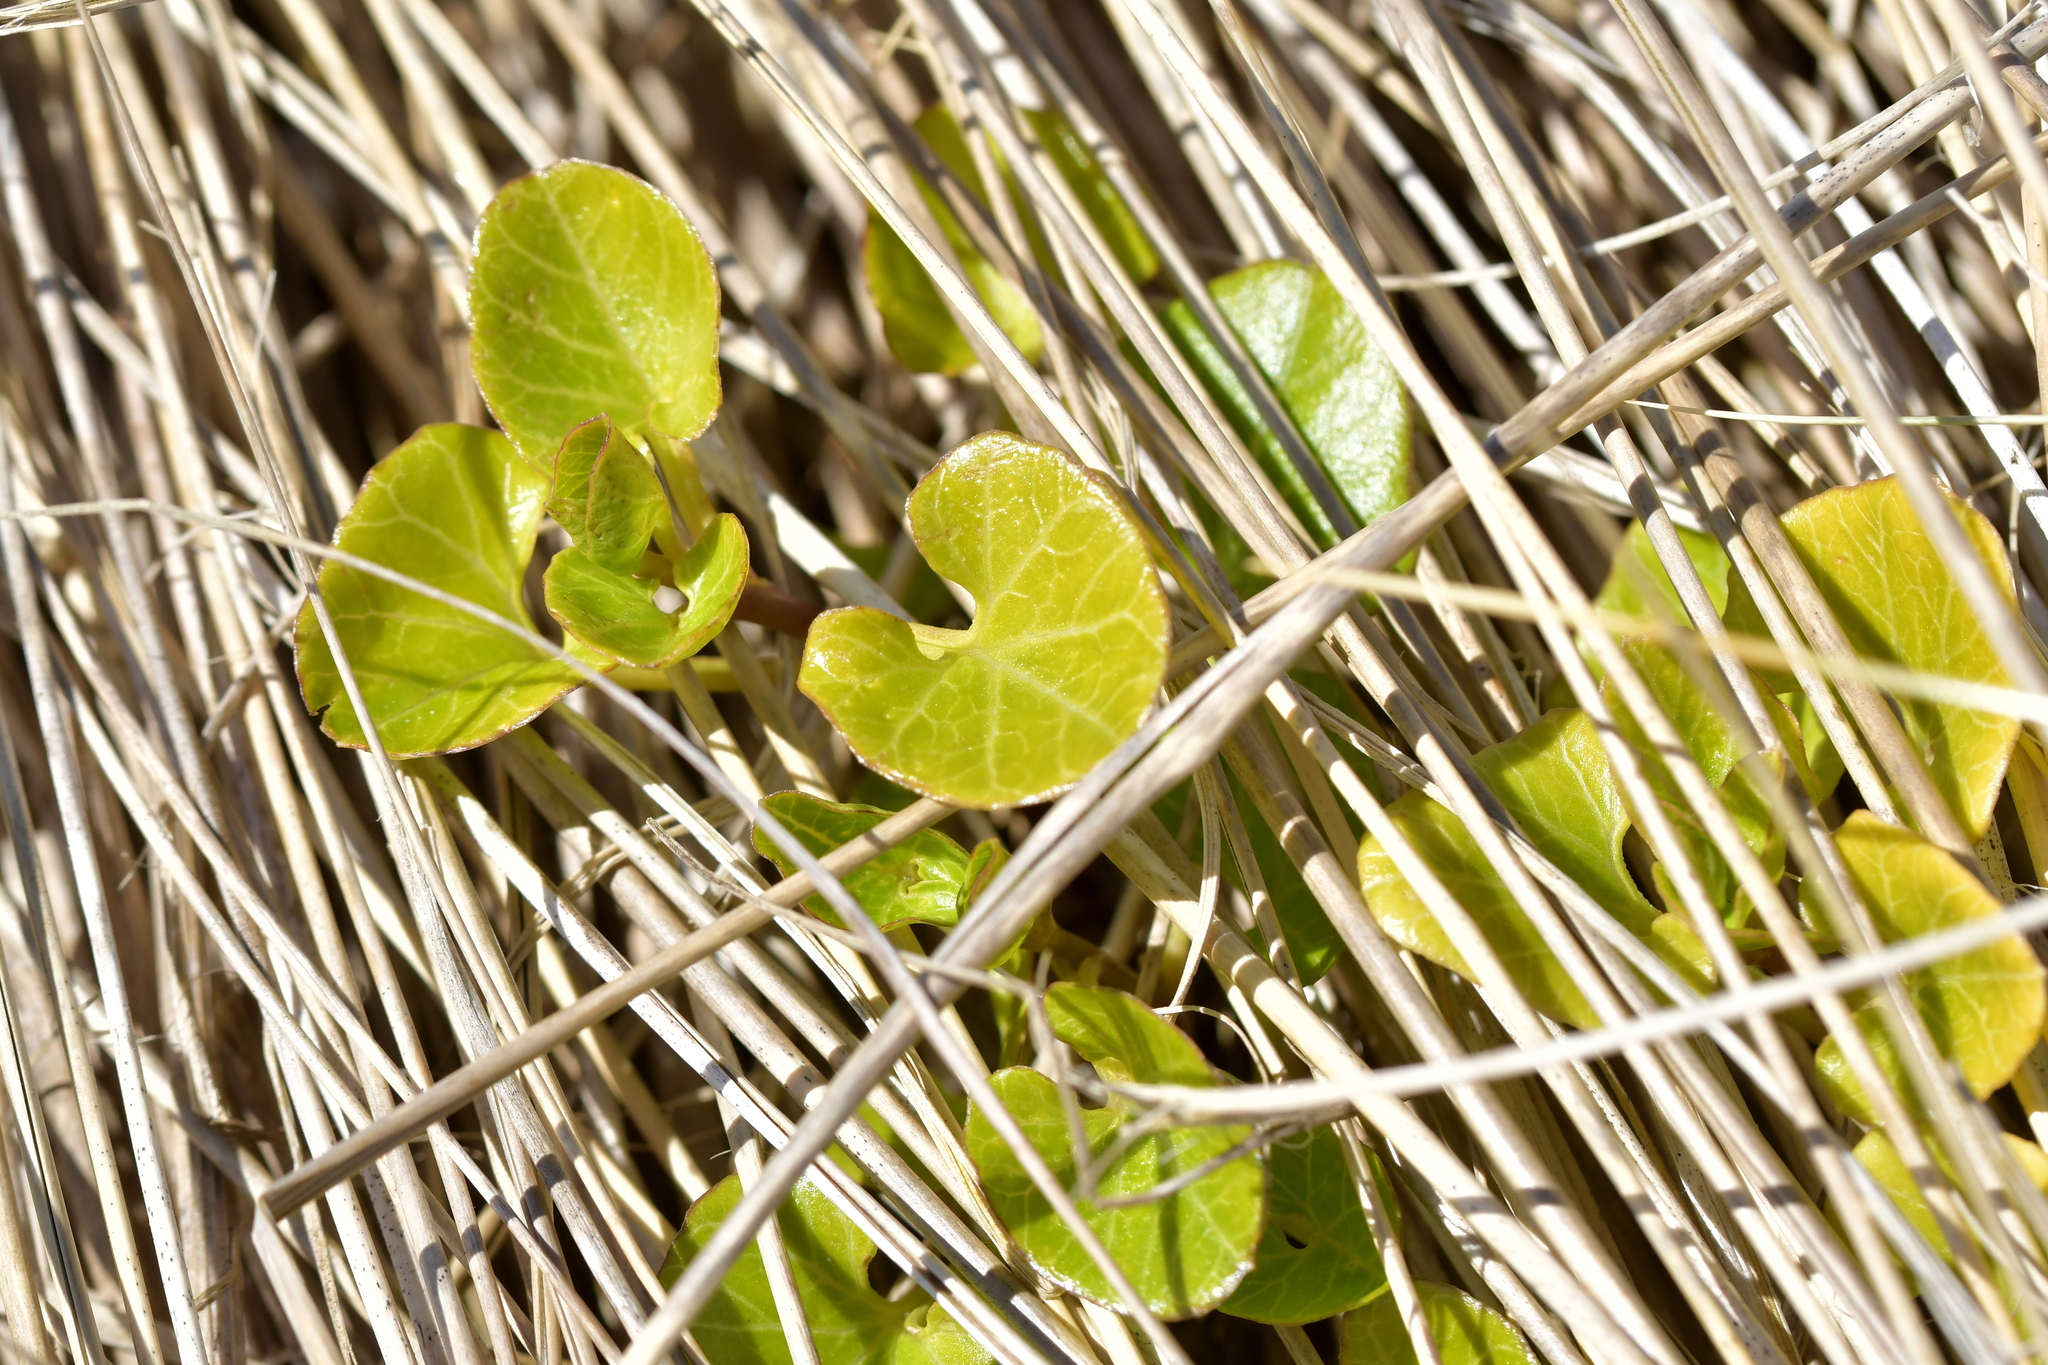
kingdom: Plantae
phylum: Tracheophyta
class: Magnoliopsida
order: Solanales
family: Convolvulaceae
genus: Calystegia
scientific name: Calystegia soldanella
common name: Sea bindweed
